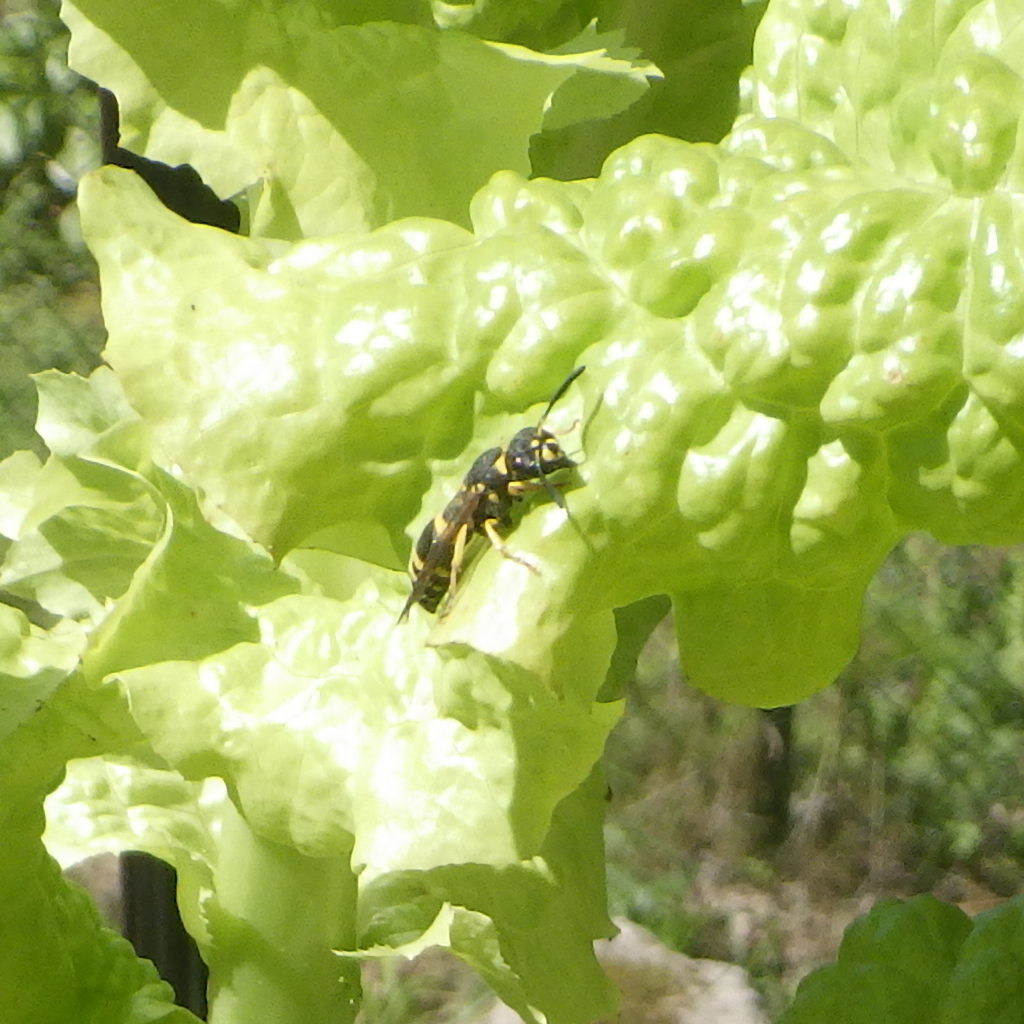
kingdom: Animalia
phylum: Arthropoda
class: Insecta
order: Hymenoptera
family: Vespidae
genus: Ancistrocerus
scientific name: Ancistrocerus
